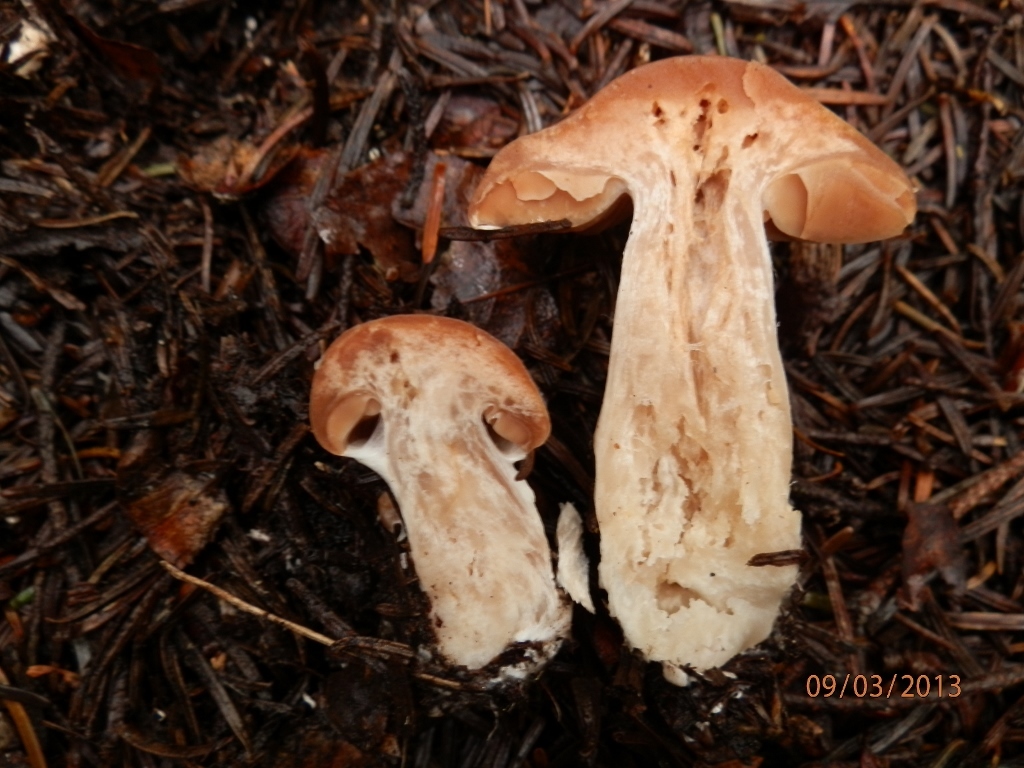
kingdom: Fungi
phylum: Basidiomycota
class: Agaricomycetes
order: Agaricales
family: Cortinariaceae
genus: Cortinarius
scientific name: Cortinarius armeniacus
